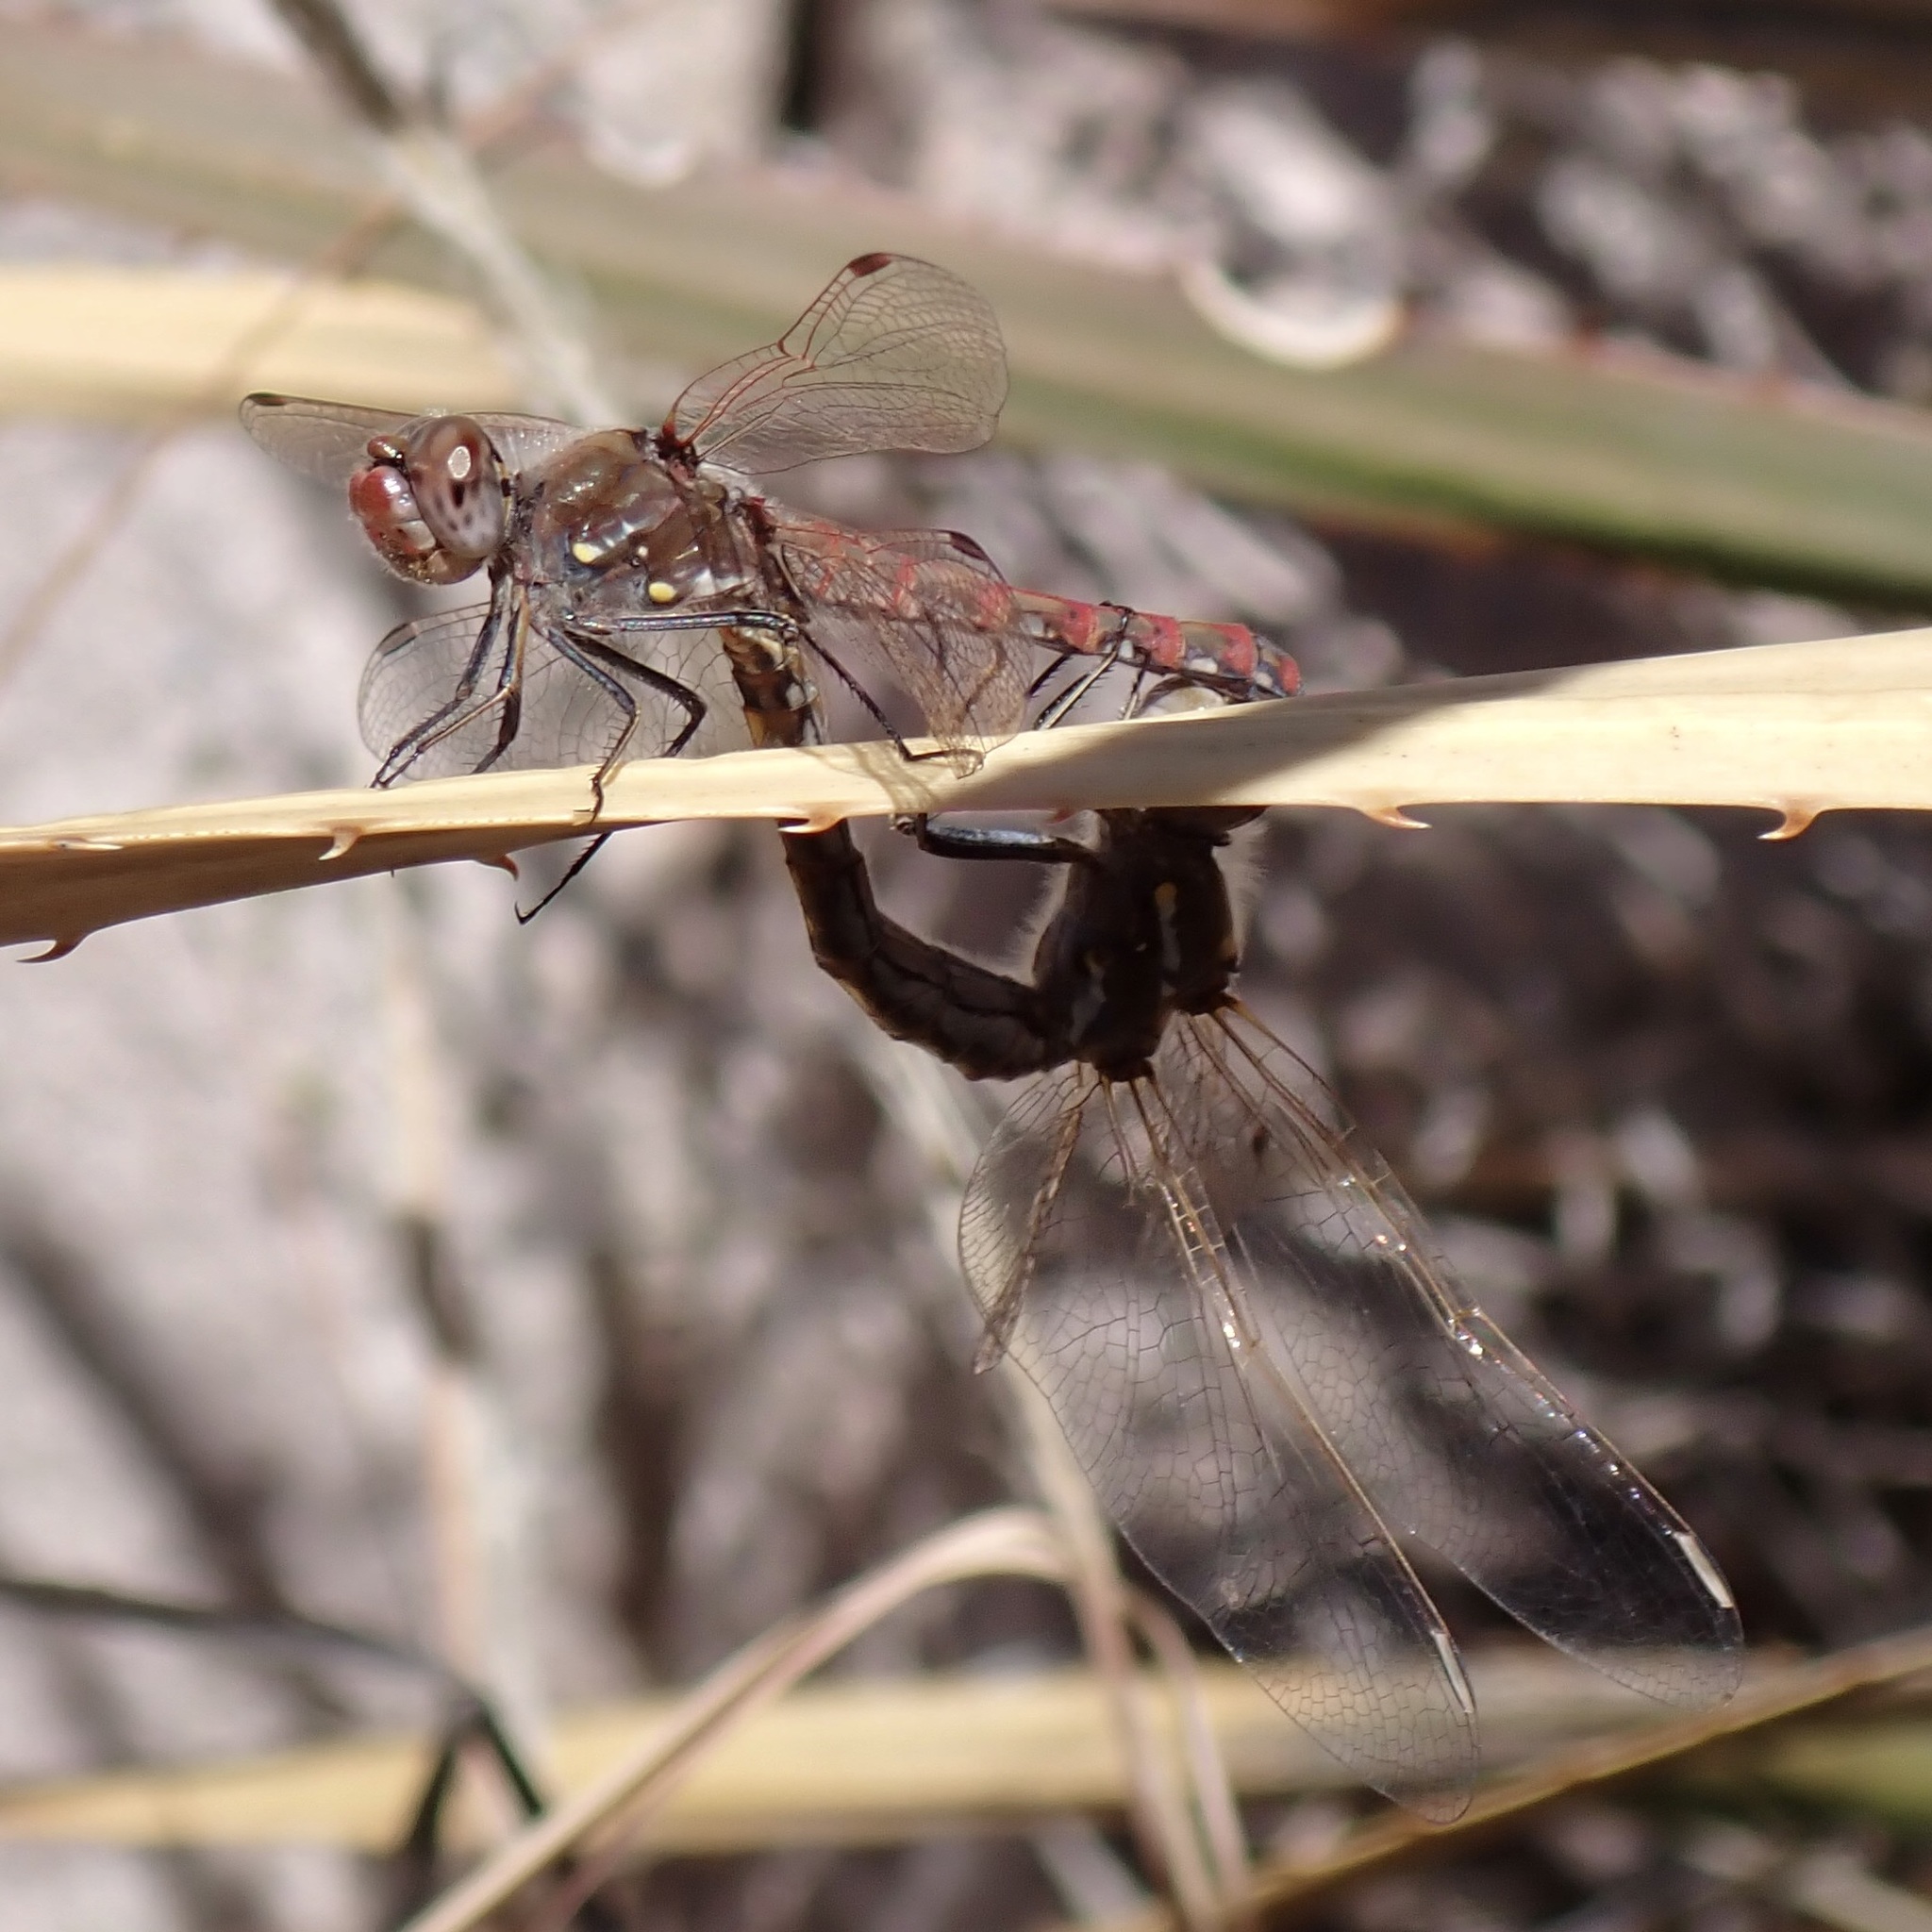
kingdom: Animalia
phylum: Arthropoda
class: Insecta
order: Odonata
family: Libellulidae
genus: Sympetrum
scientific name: Sympetrum corruptum
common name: Variegated meadowhawk
